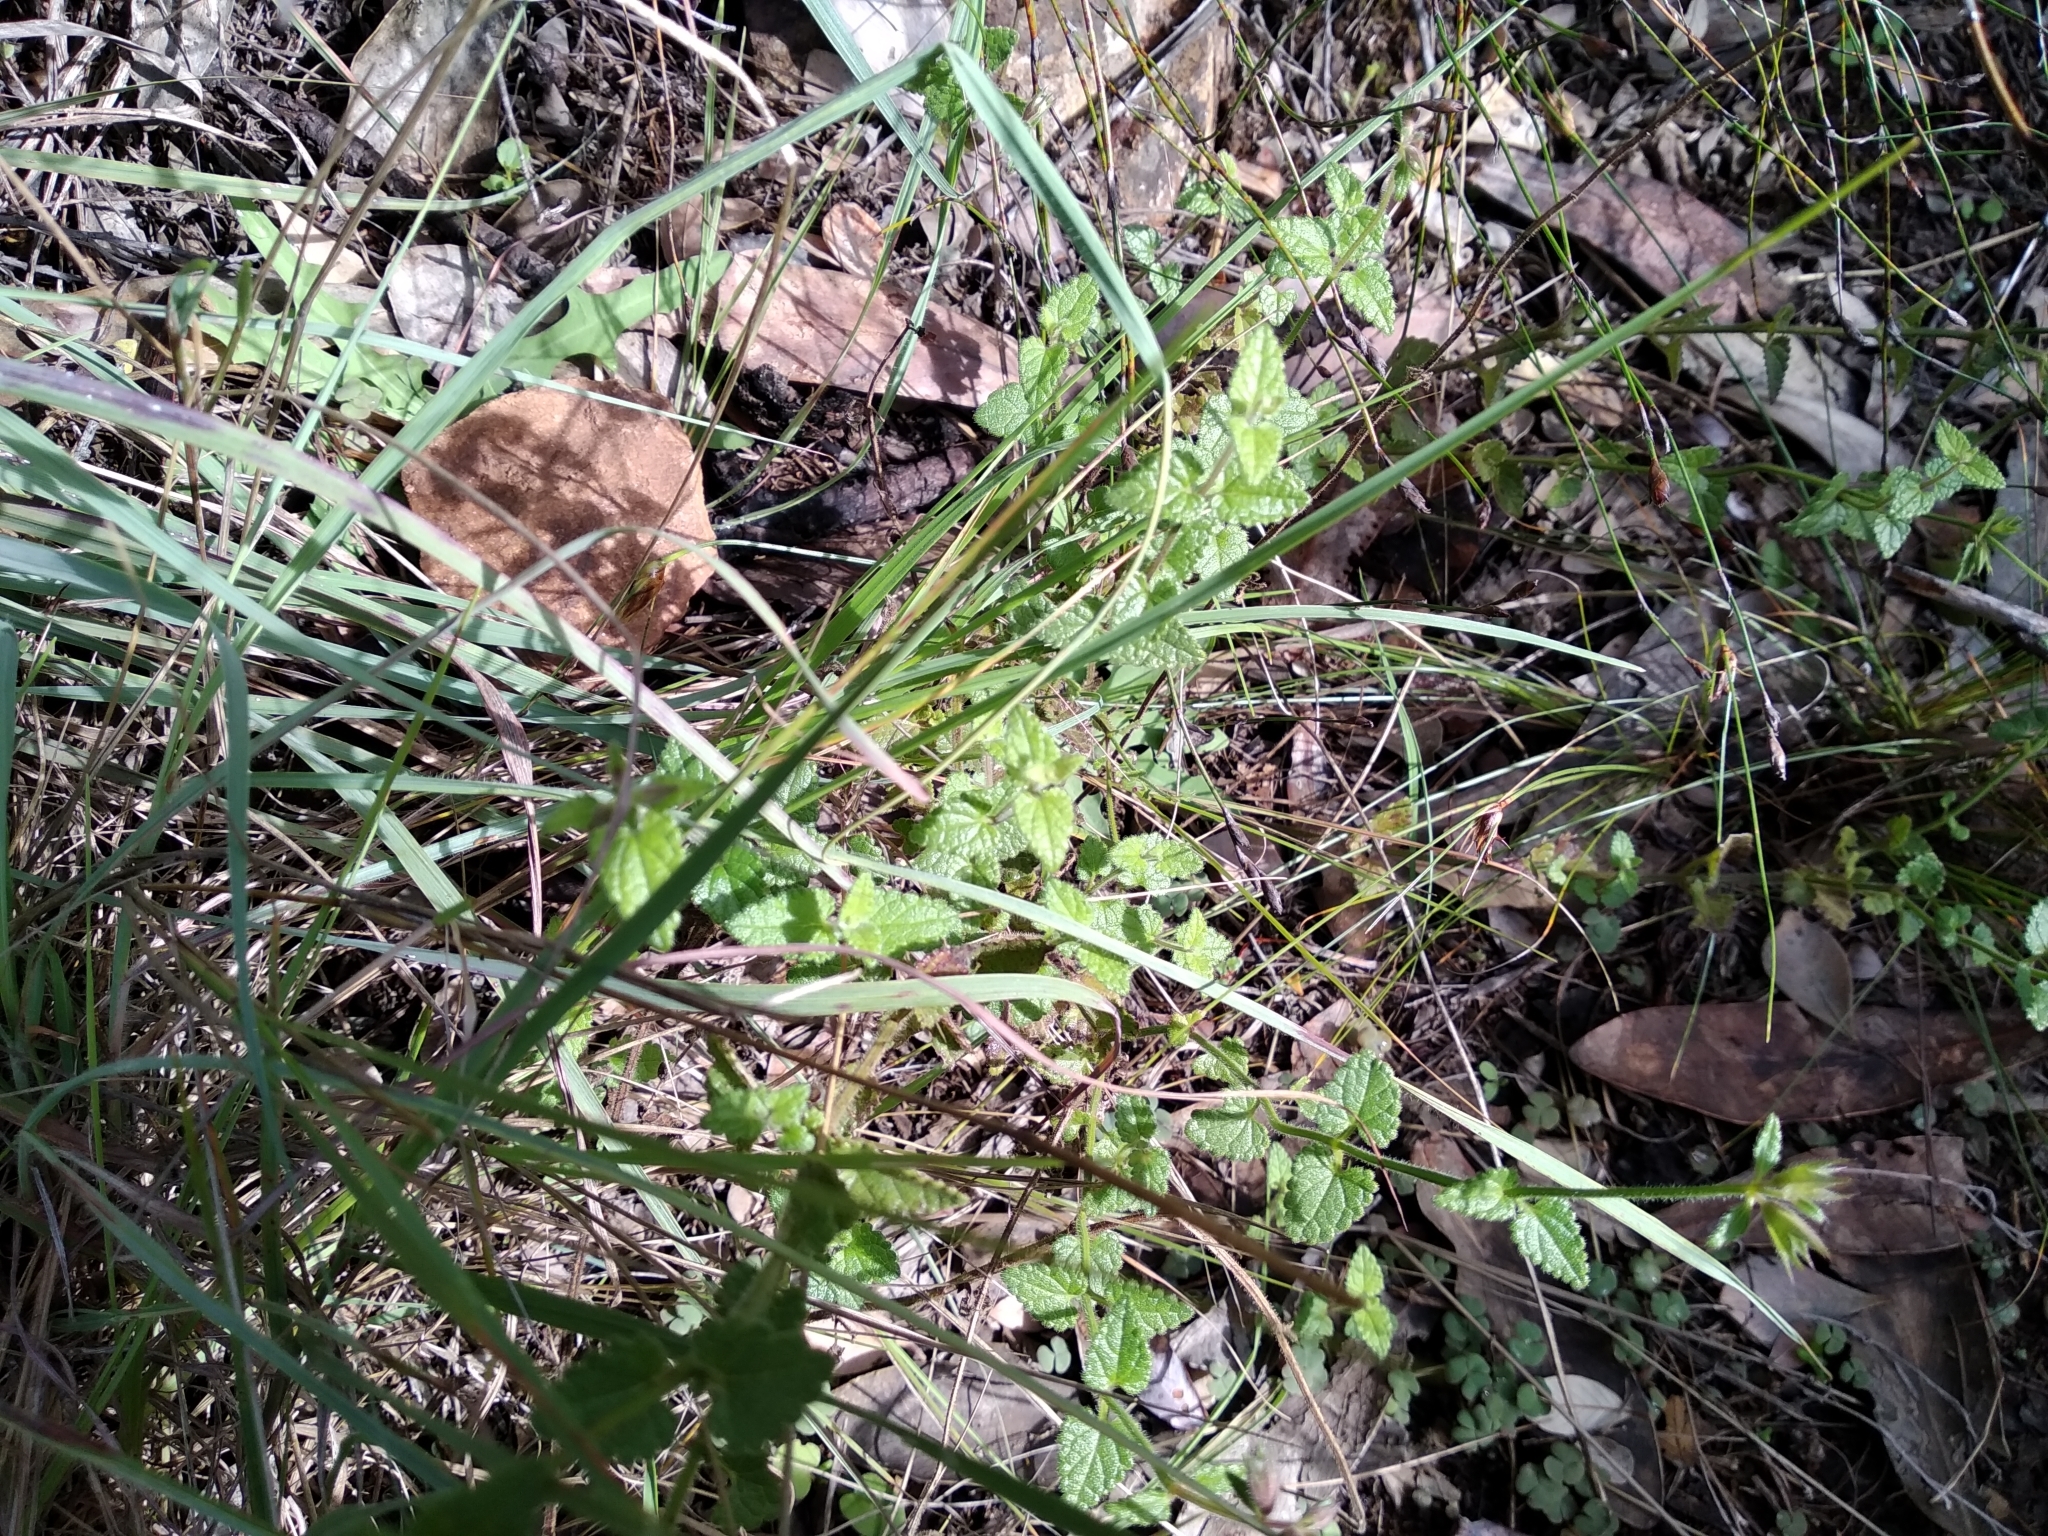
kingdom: Plantae
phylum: Tracheophyta
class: Magnoliopsida
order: Lamiales
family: Lamiaceae
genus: Stachys
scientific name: Stachys aethiopica
